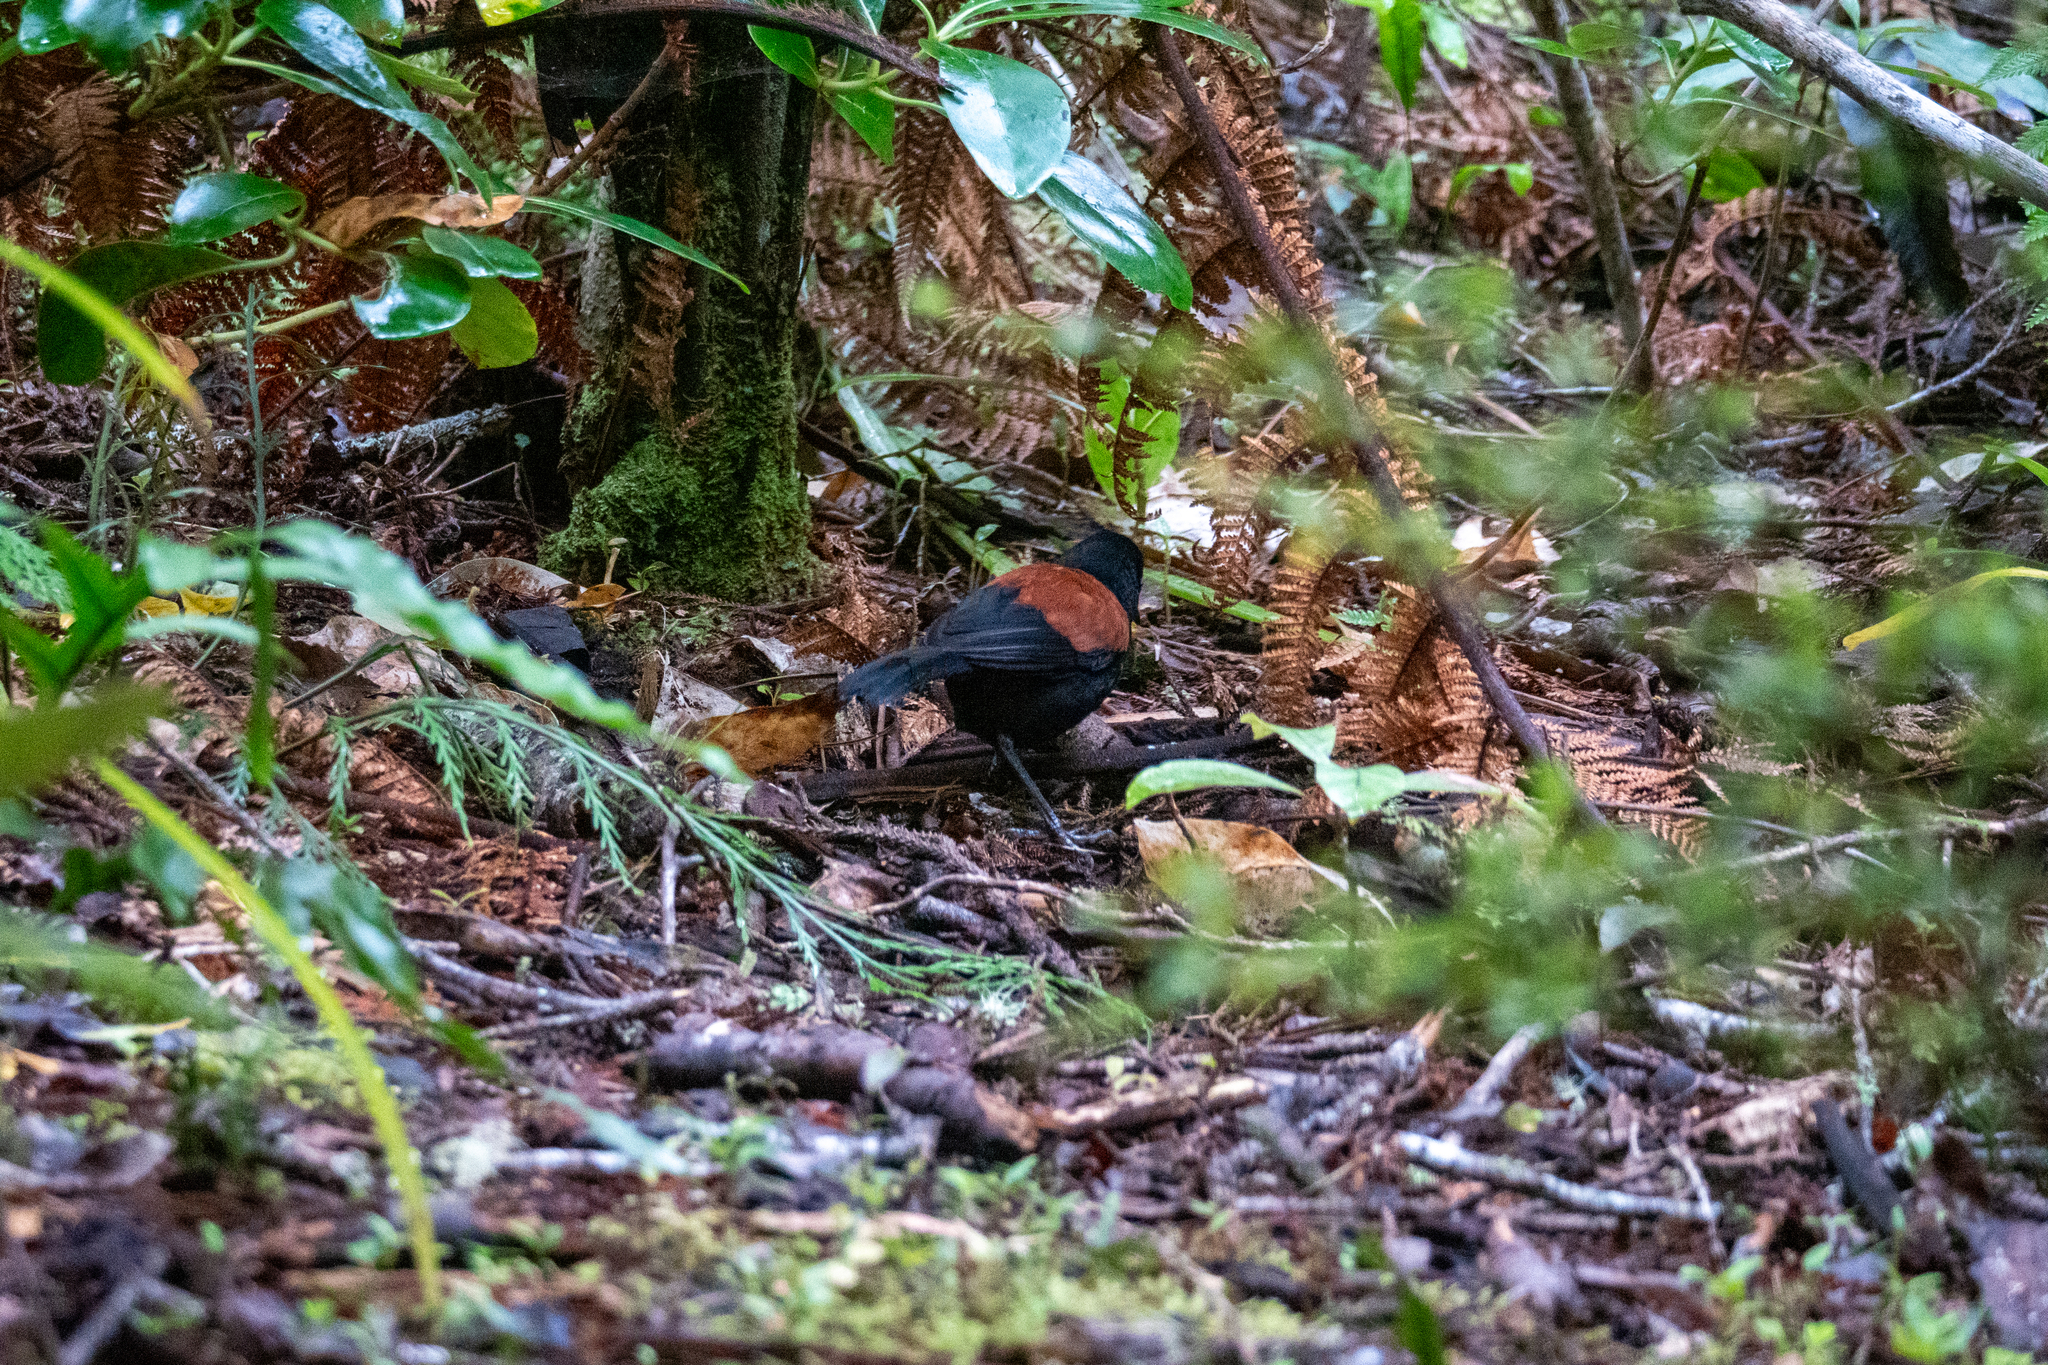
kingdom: Animalia
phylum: Chordata
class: Aves
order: Passeriformes
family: Callaeatidae
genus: Philesturnus
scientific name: Philesturnus carunculatus
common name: South island saddleback
